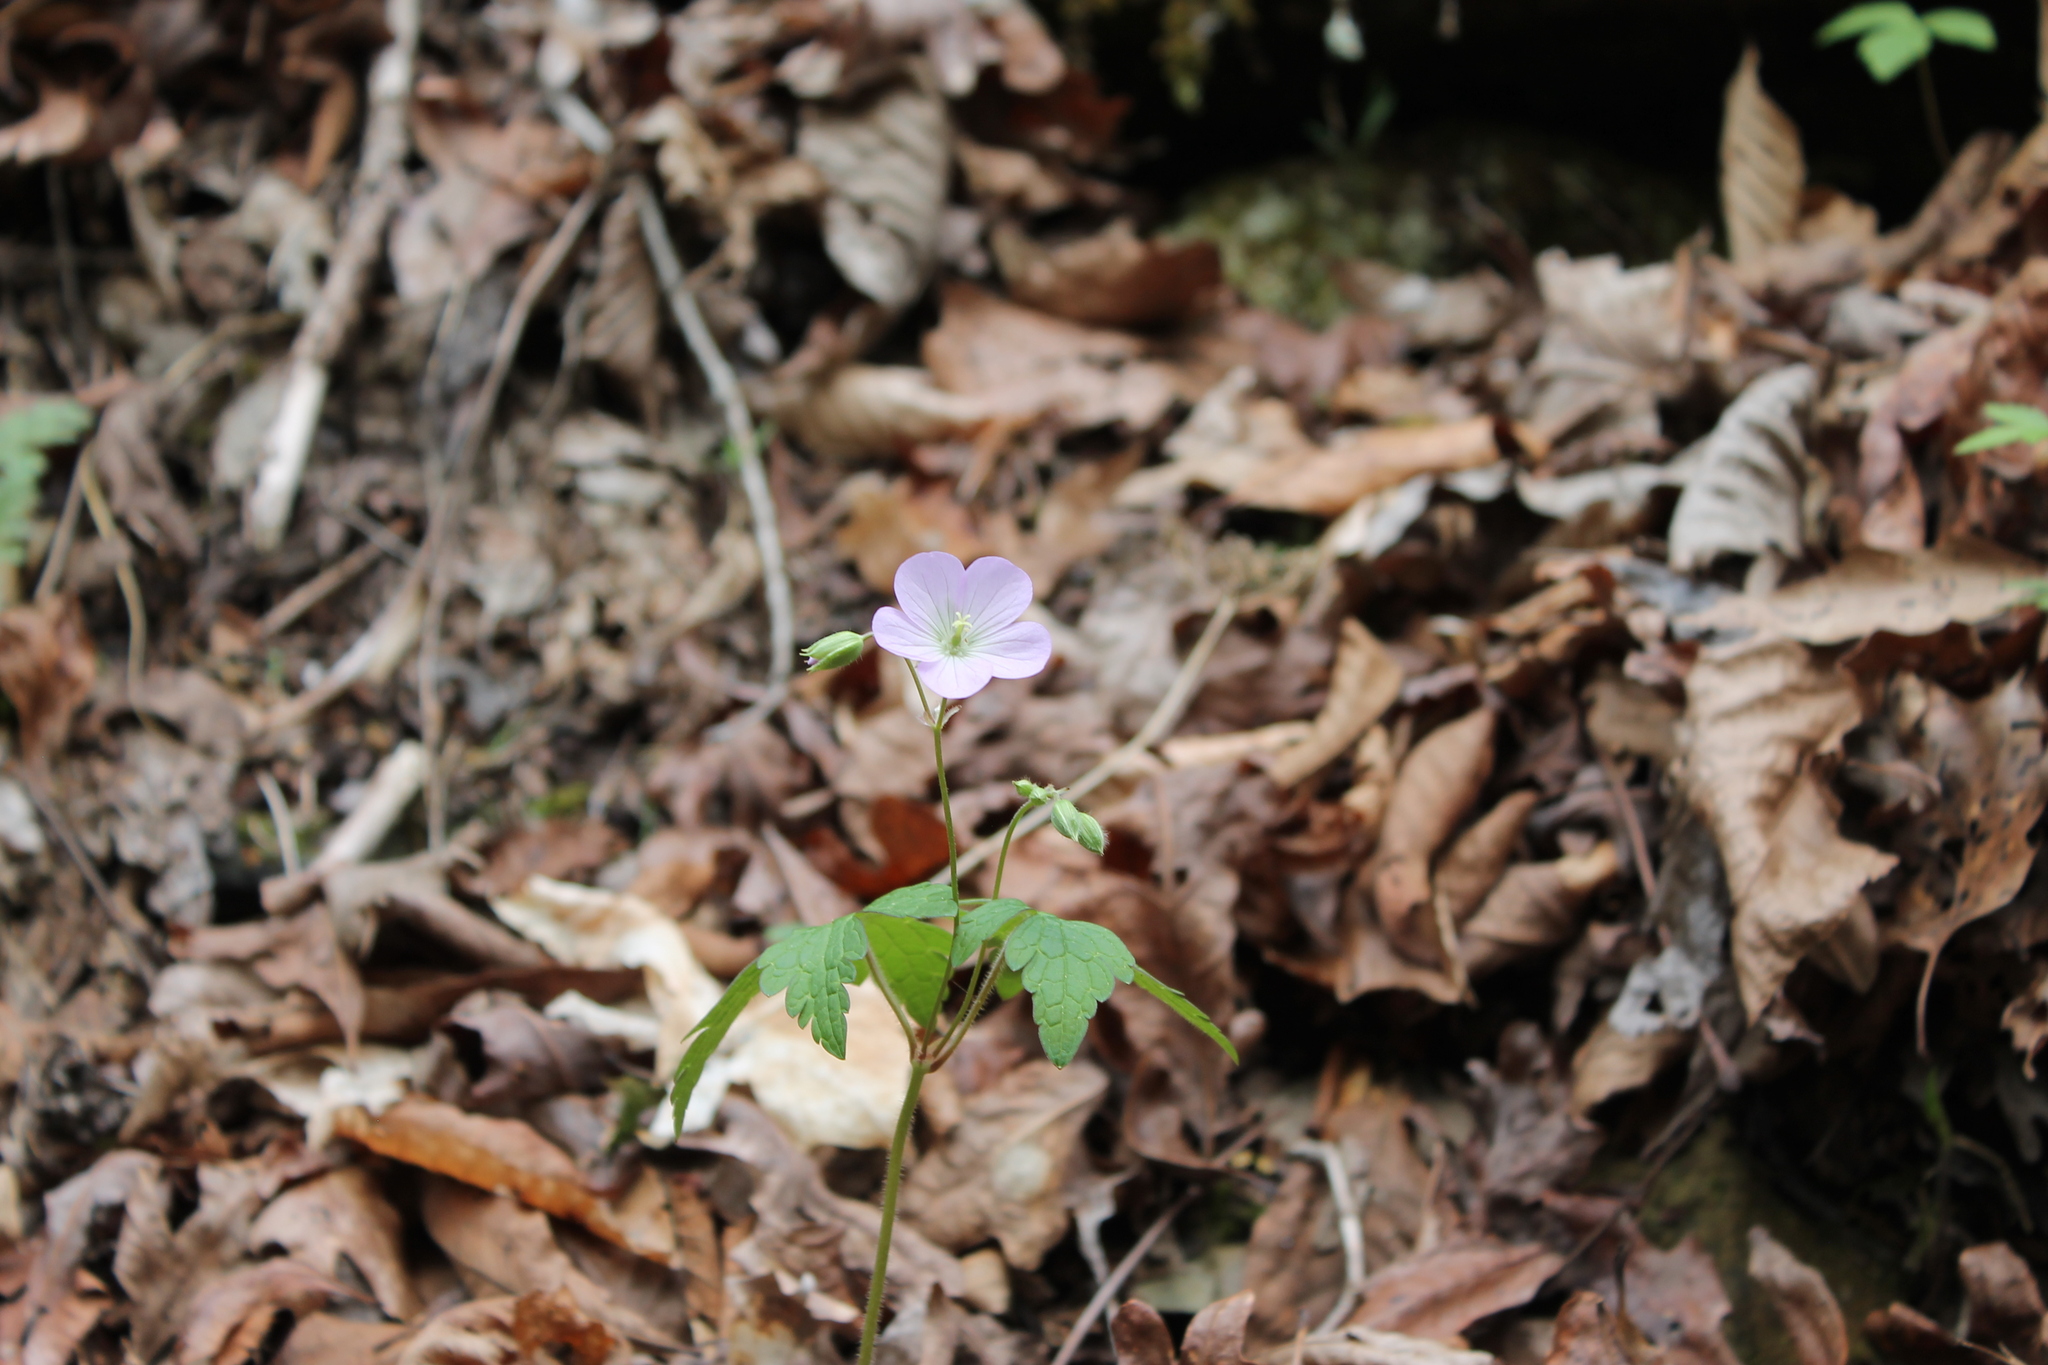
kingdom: Plantae
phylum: Tracheophyta
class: Magnoliopsida
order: Geraniales
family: Geraniaceae
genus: Geranium
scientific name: Geranium maculatum
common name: Spotted geranium
